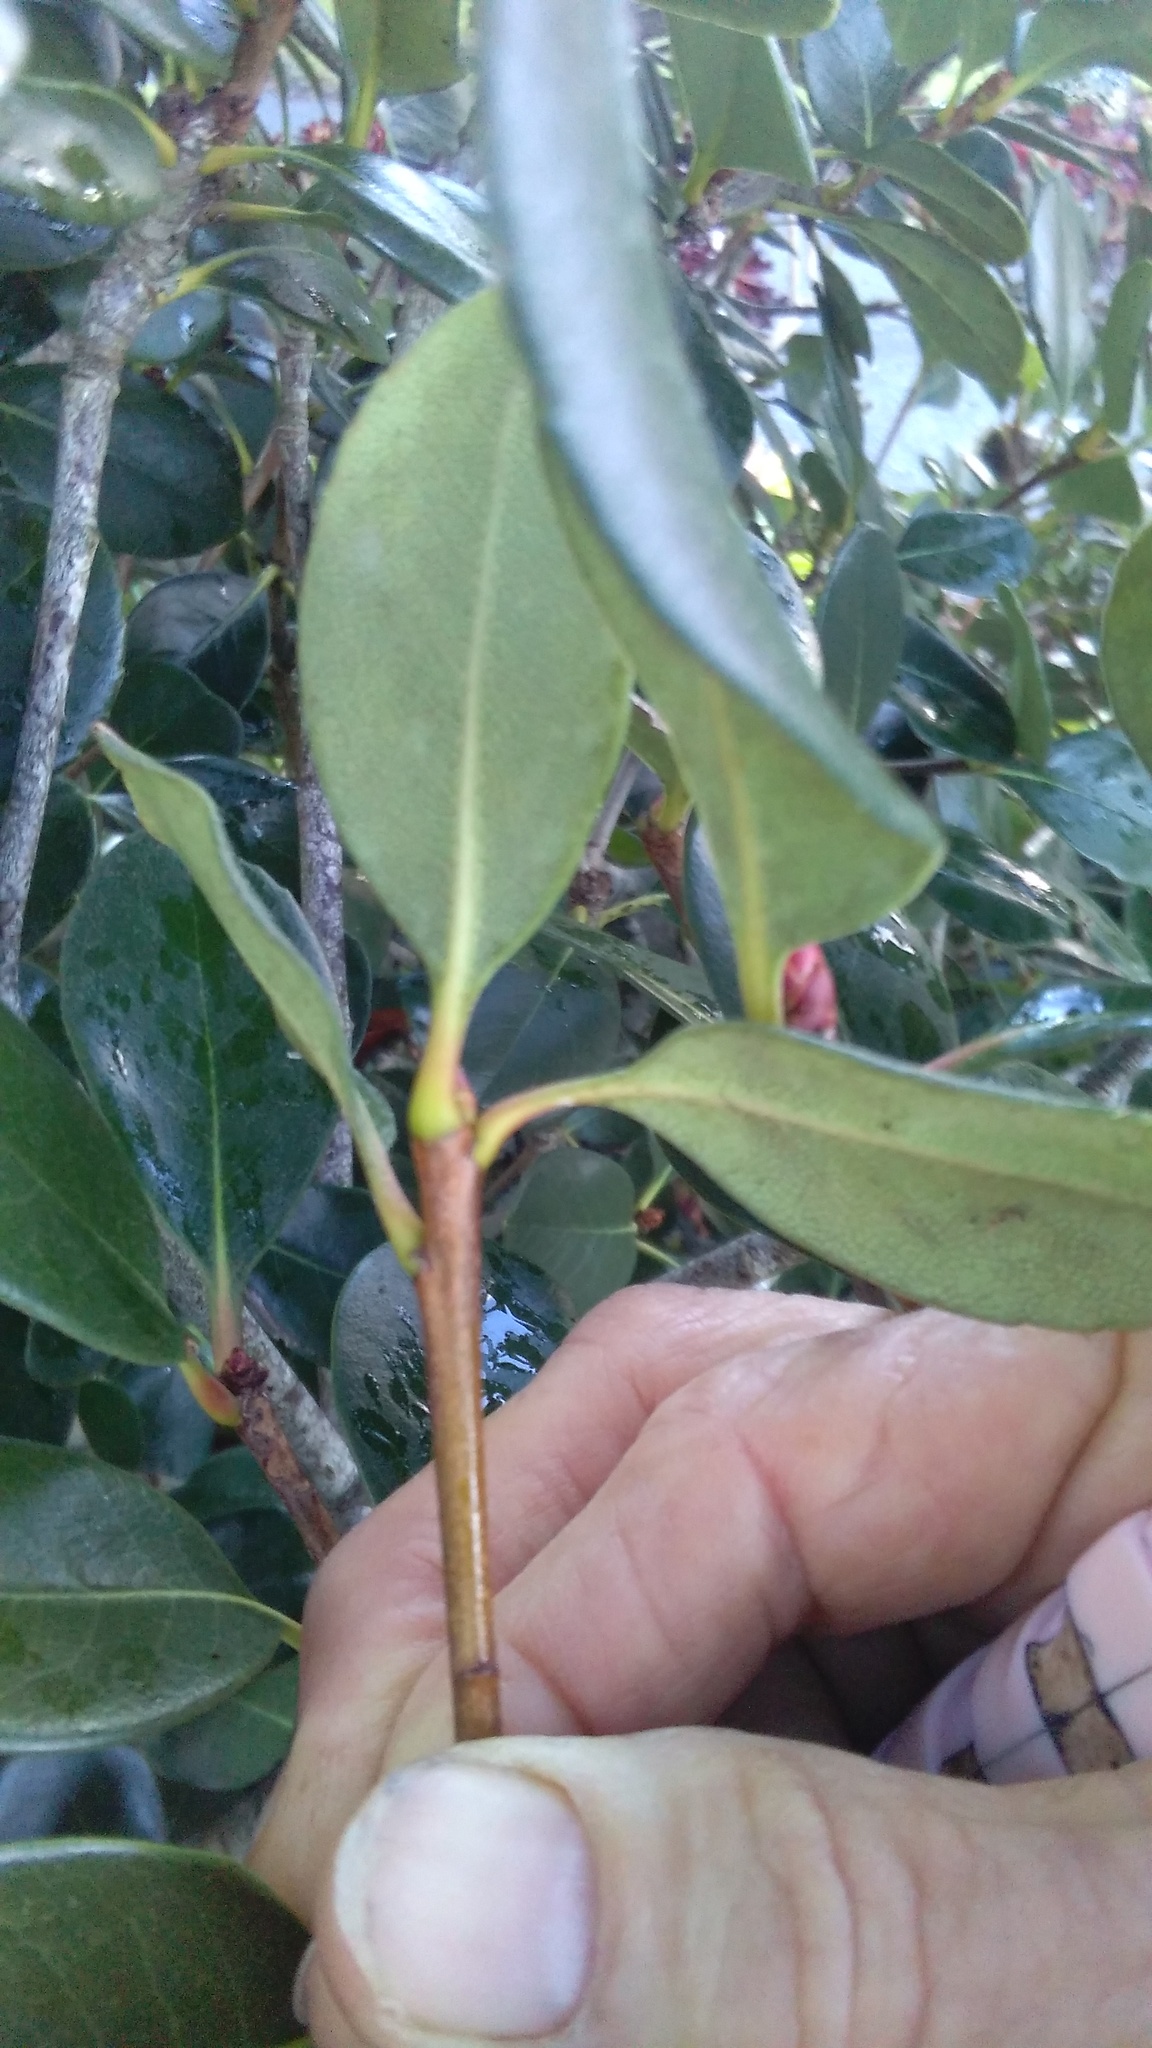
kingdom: Plantae
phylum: Tracheophyta
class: Magnoliopsida
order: Rosales
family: Rosaceae
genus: Rhaphiolepis
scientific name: Rhaphiolepis indica
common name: India-hawthorn
